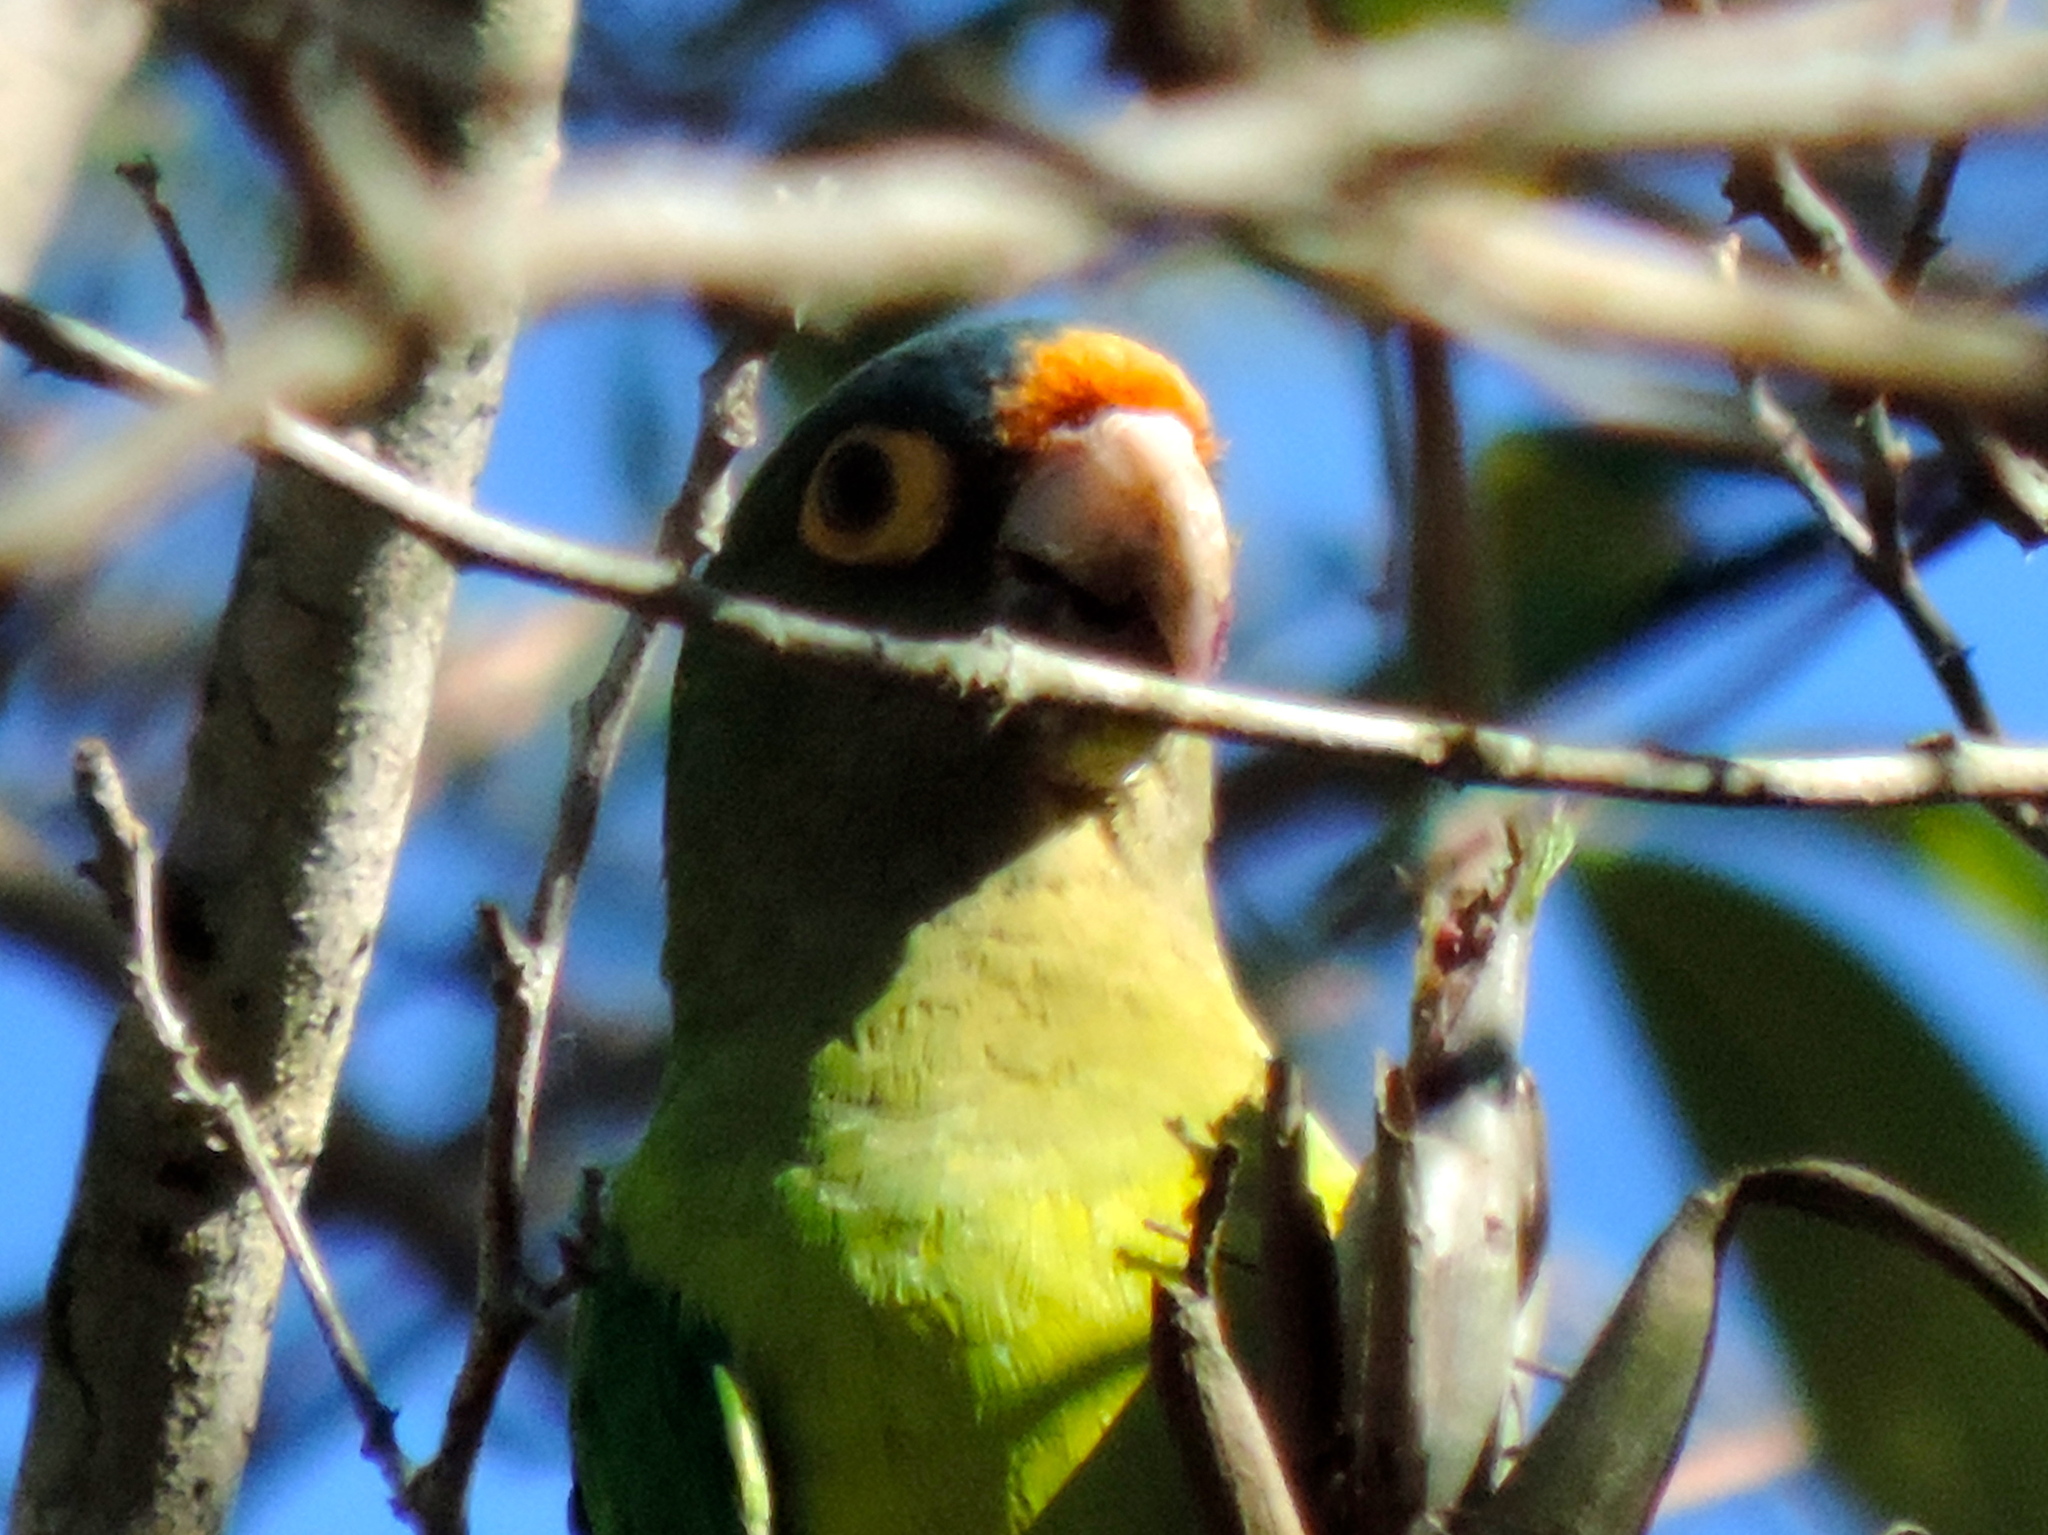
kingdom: Animalia
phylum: Chordata
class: Aves
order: Psittaciformes
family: Psittacidae
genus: Aratinga
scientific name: Aratinga canicularis
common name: Orange-fronted parakeet
